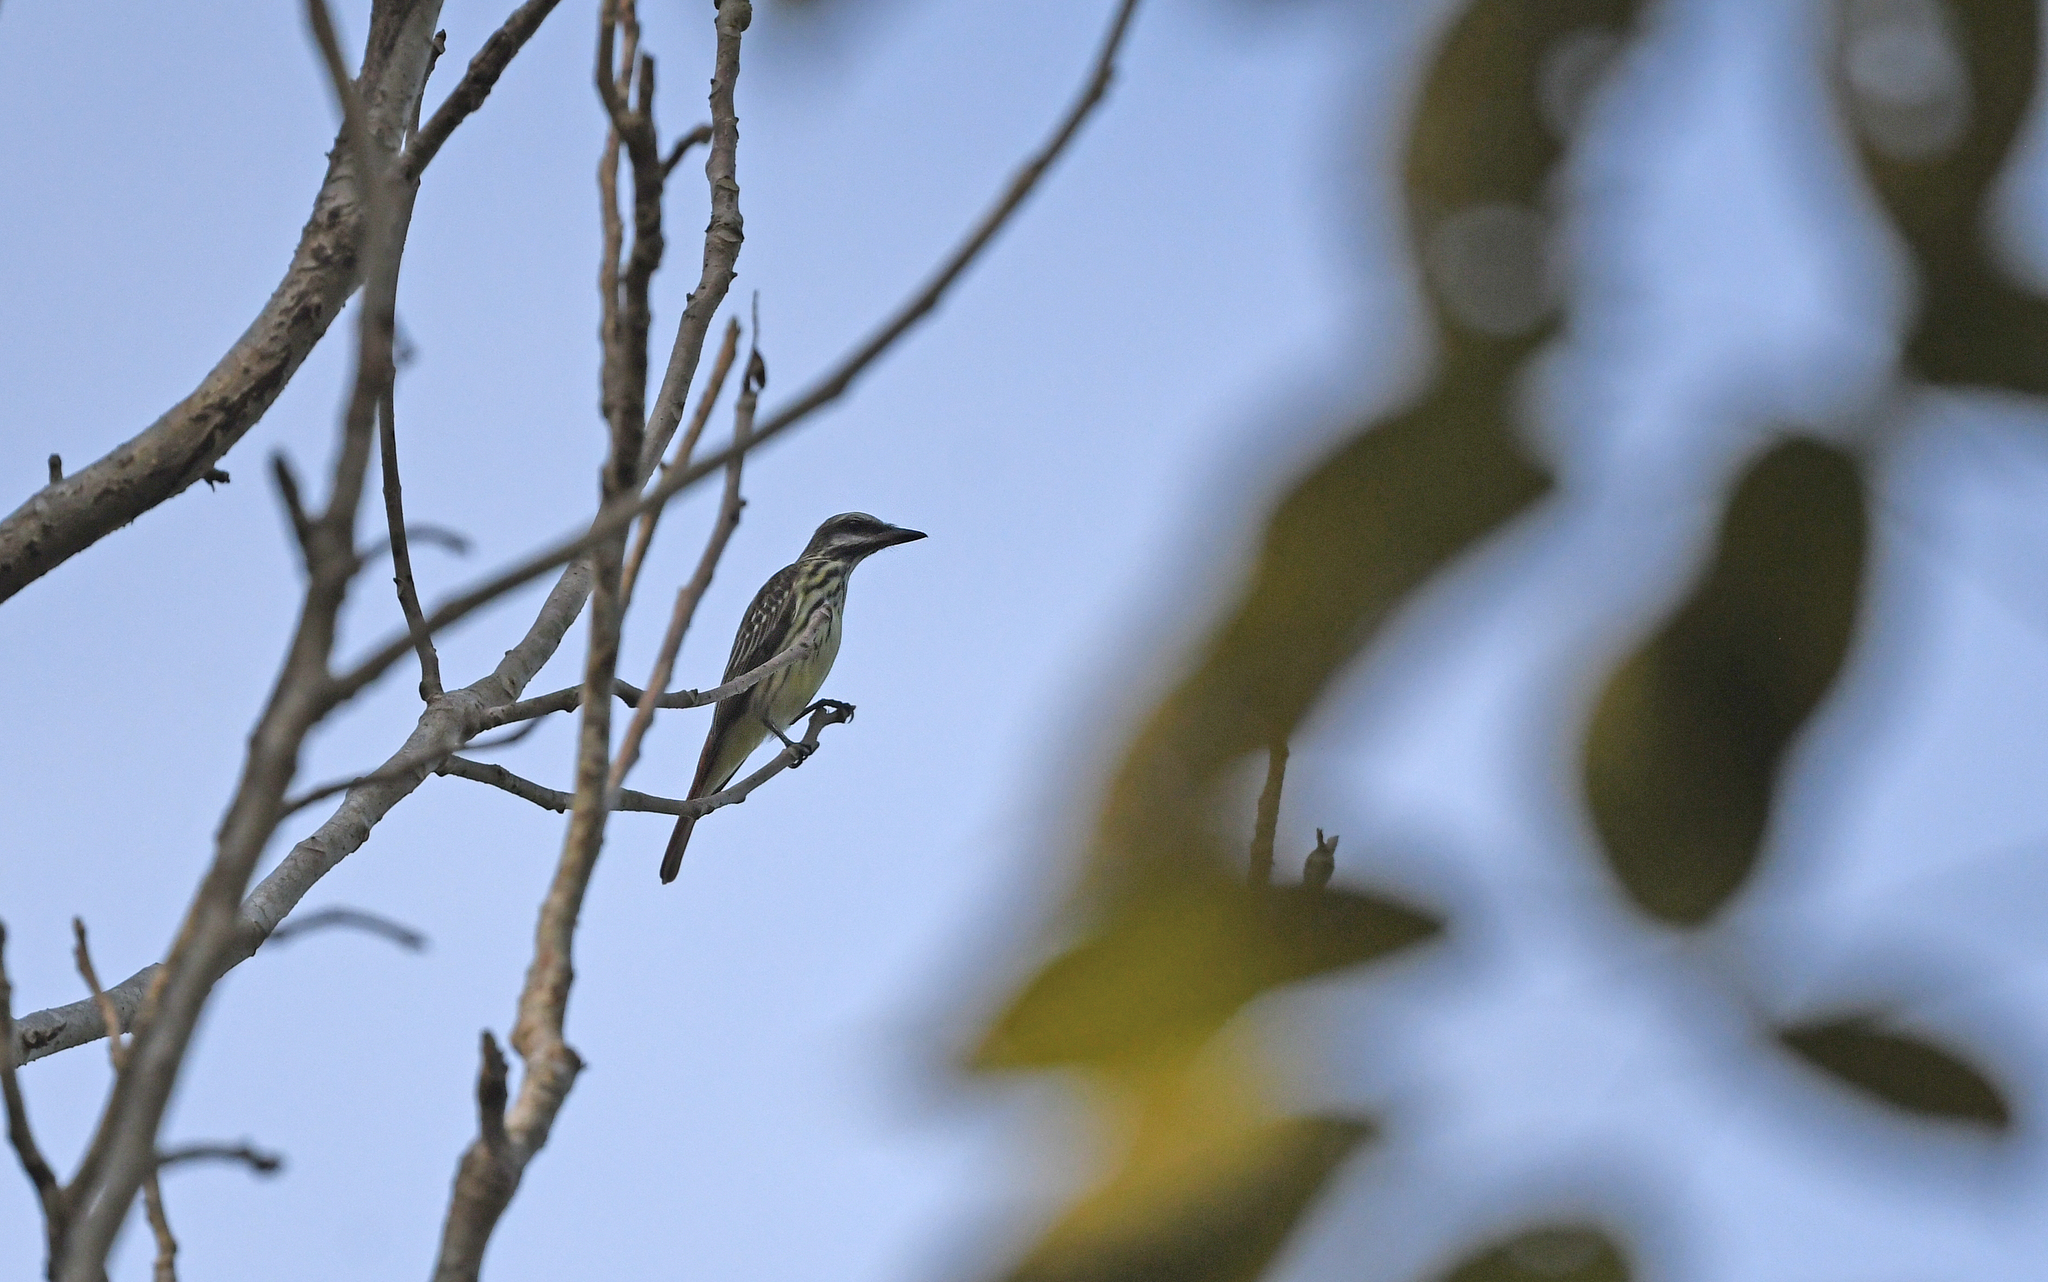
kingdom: Animalia
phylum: Chordata
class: Aves
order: Passeriformes
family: Tyrannidae
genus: Myiodynastes
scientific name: Myiodynastes maculatus
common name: Streaked flycatcher
